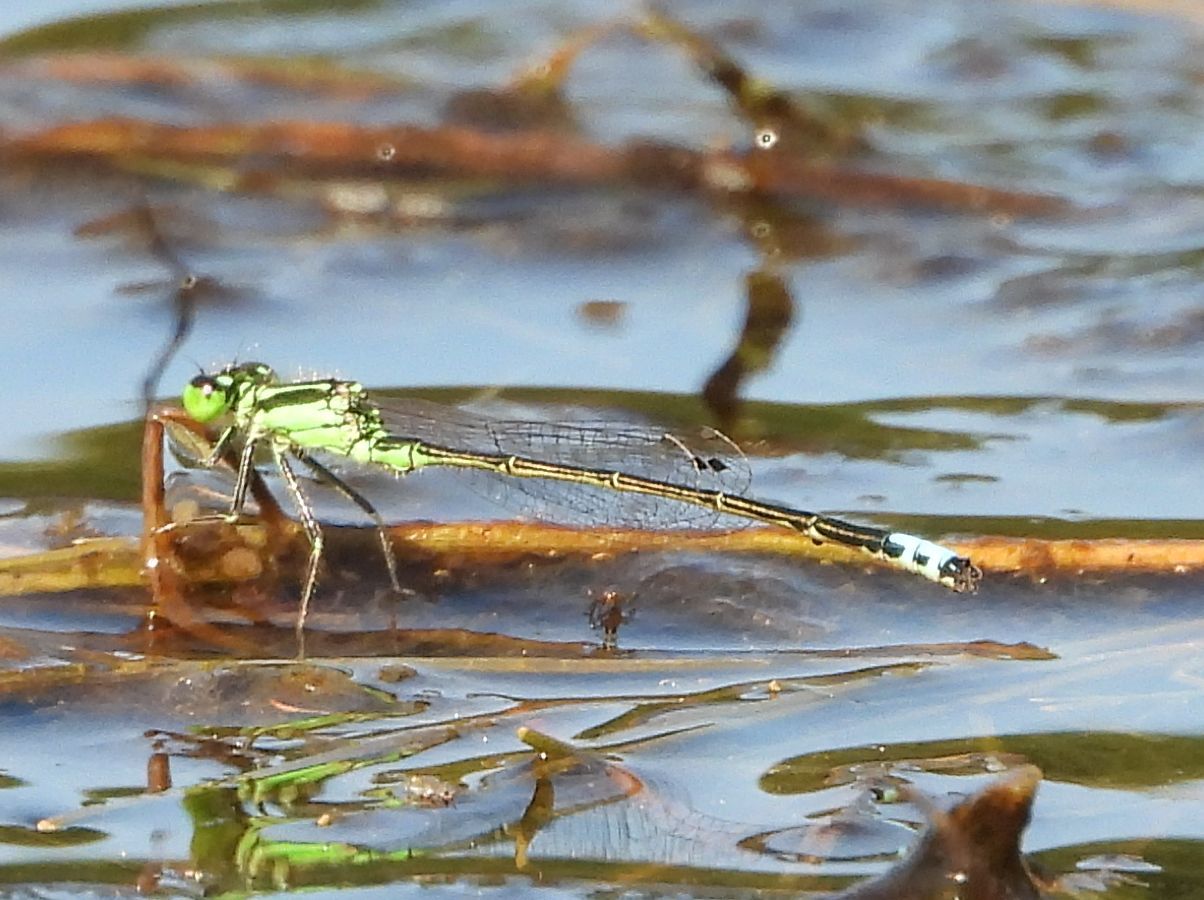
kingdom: Animalia
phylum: Arthropoda
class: Insecta
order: Odonata
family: Coenagrionidae
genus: Ischnura
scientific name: Ischnura verticalis
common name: Eastern forktail
